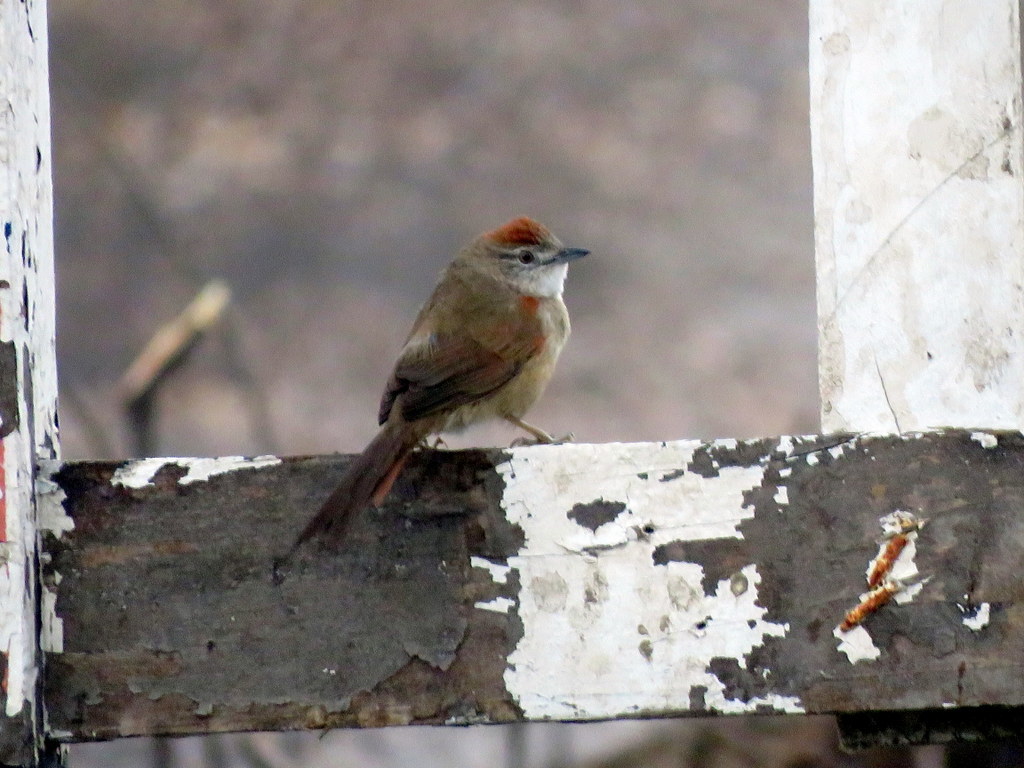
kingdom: Animalia
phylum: Chordata
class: Aves
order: Passeriformes
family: Furnariidae
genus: Synallaxis
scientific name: Synallaxis albescens
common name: Pale-breasted spinetail
